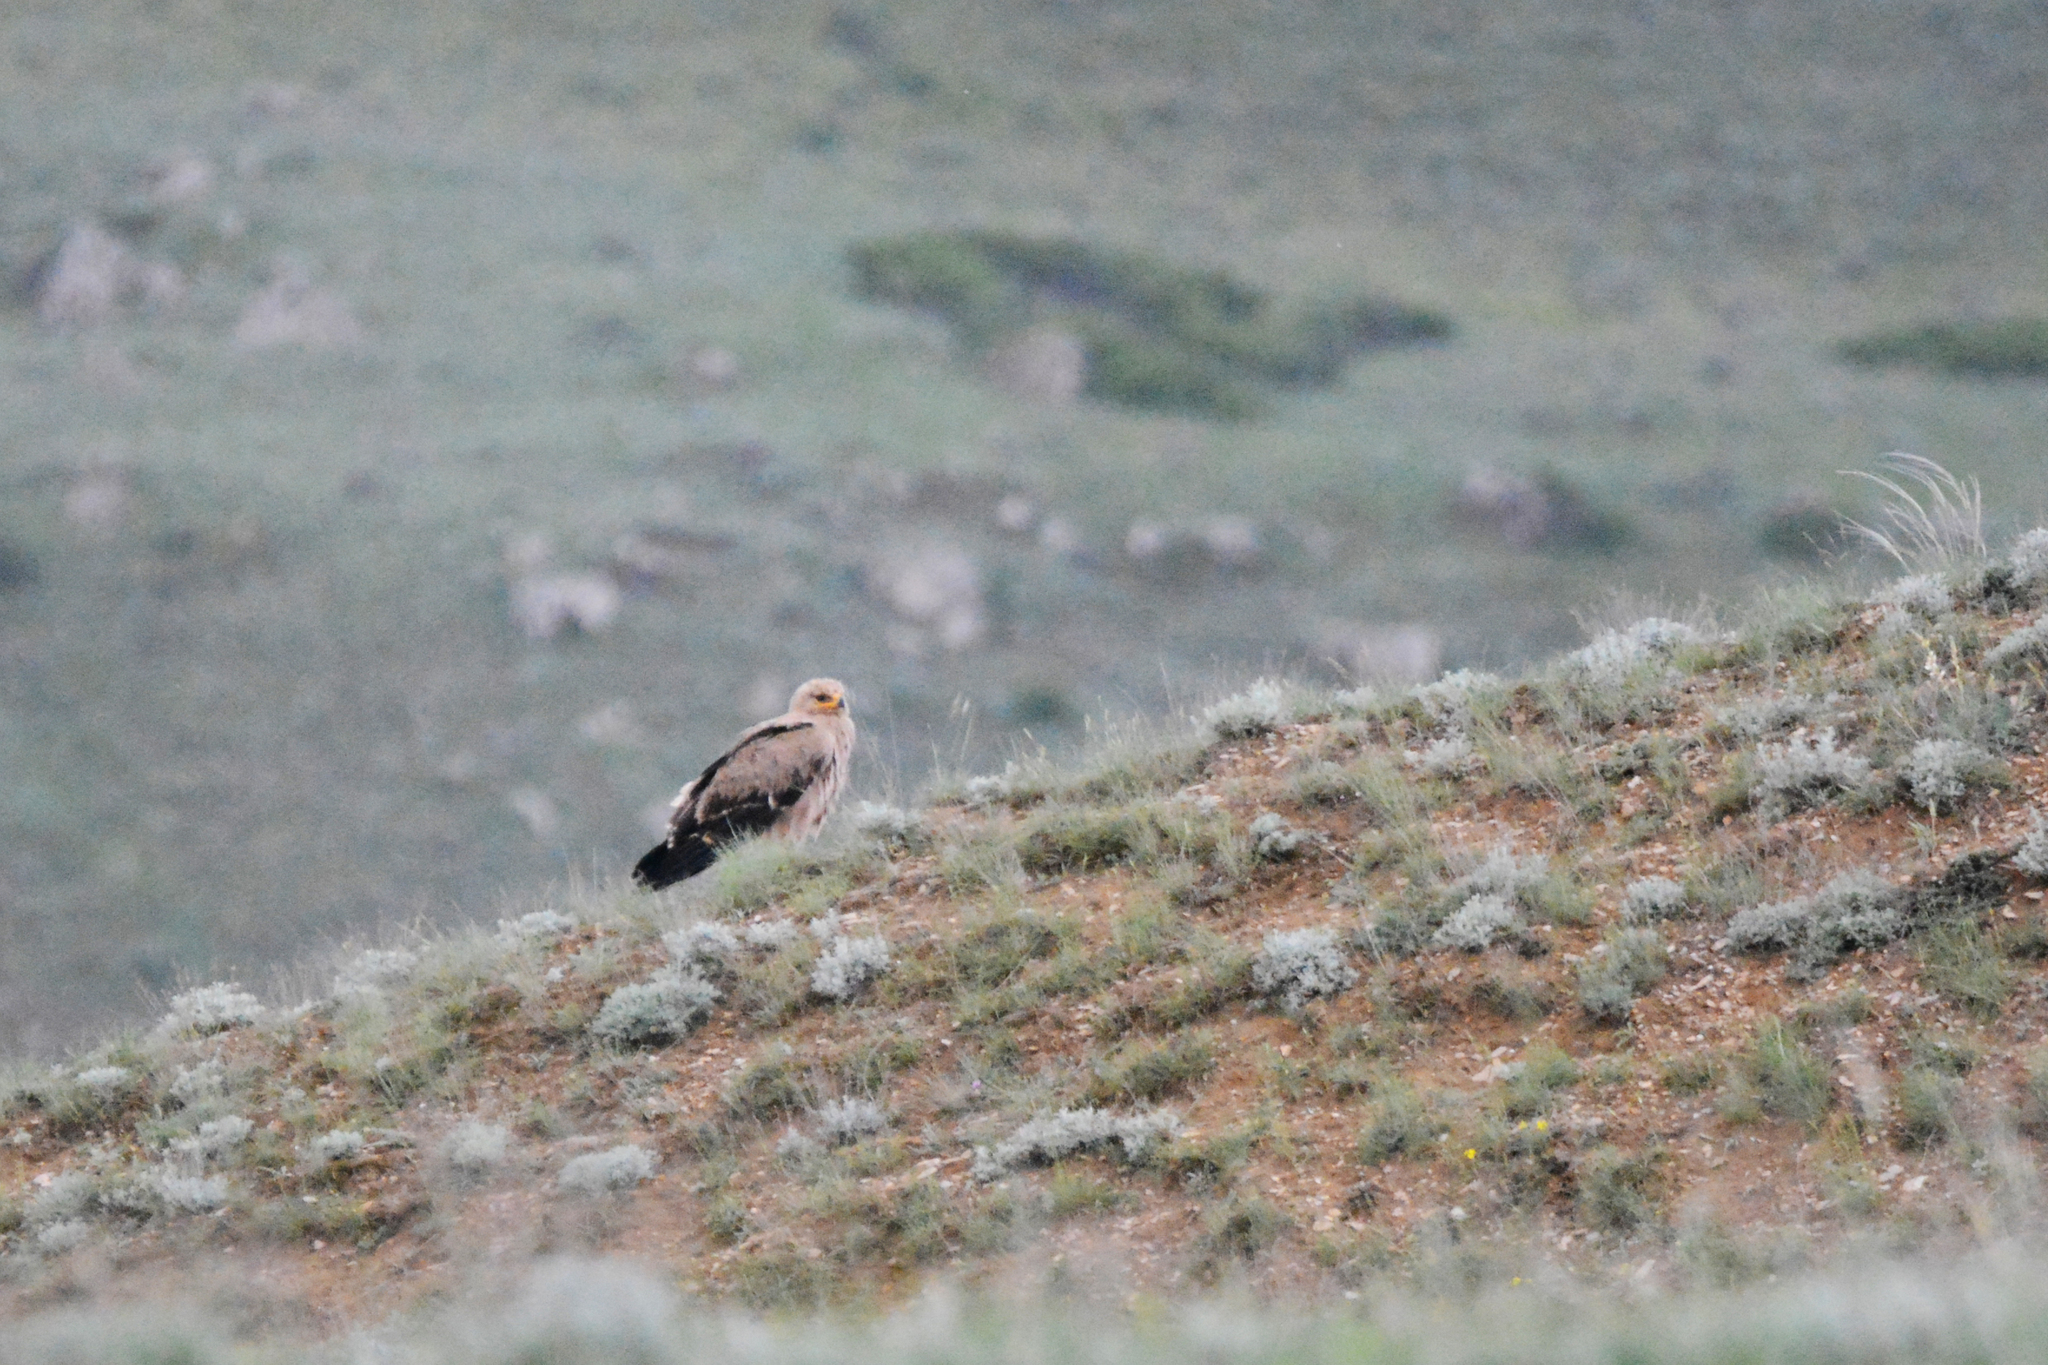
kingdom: Animalia
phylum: Chordata
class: Aves
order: Accipitriformes
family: Accipitridae
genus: Aquila
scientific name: Aquila nipalensis
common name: Steppe eagle
